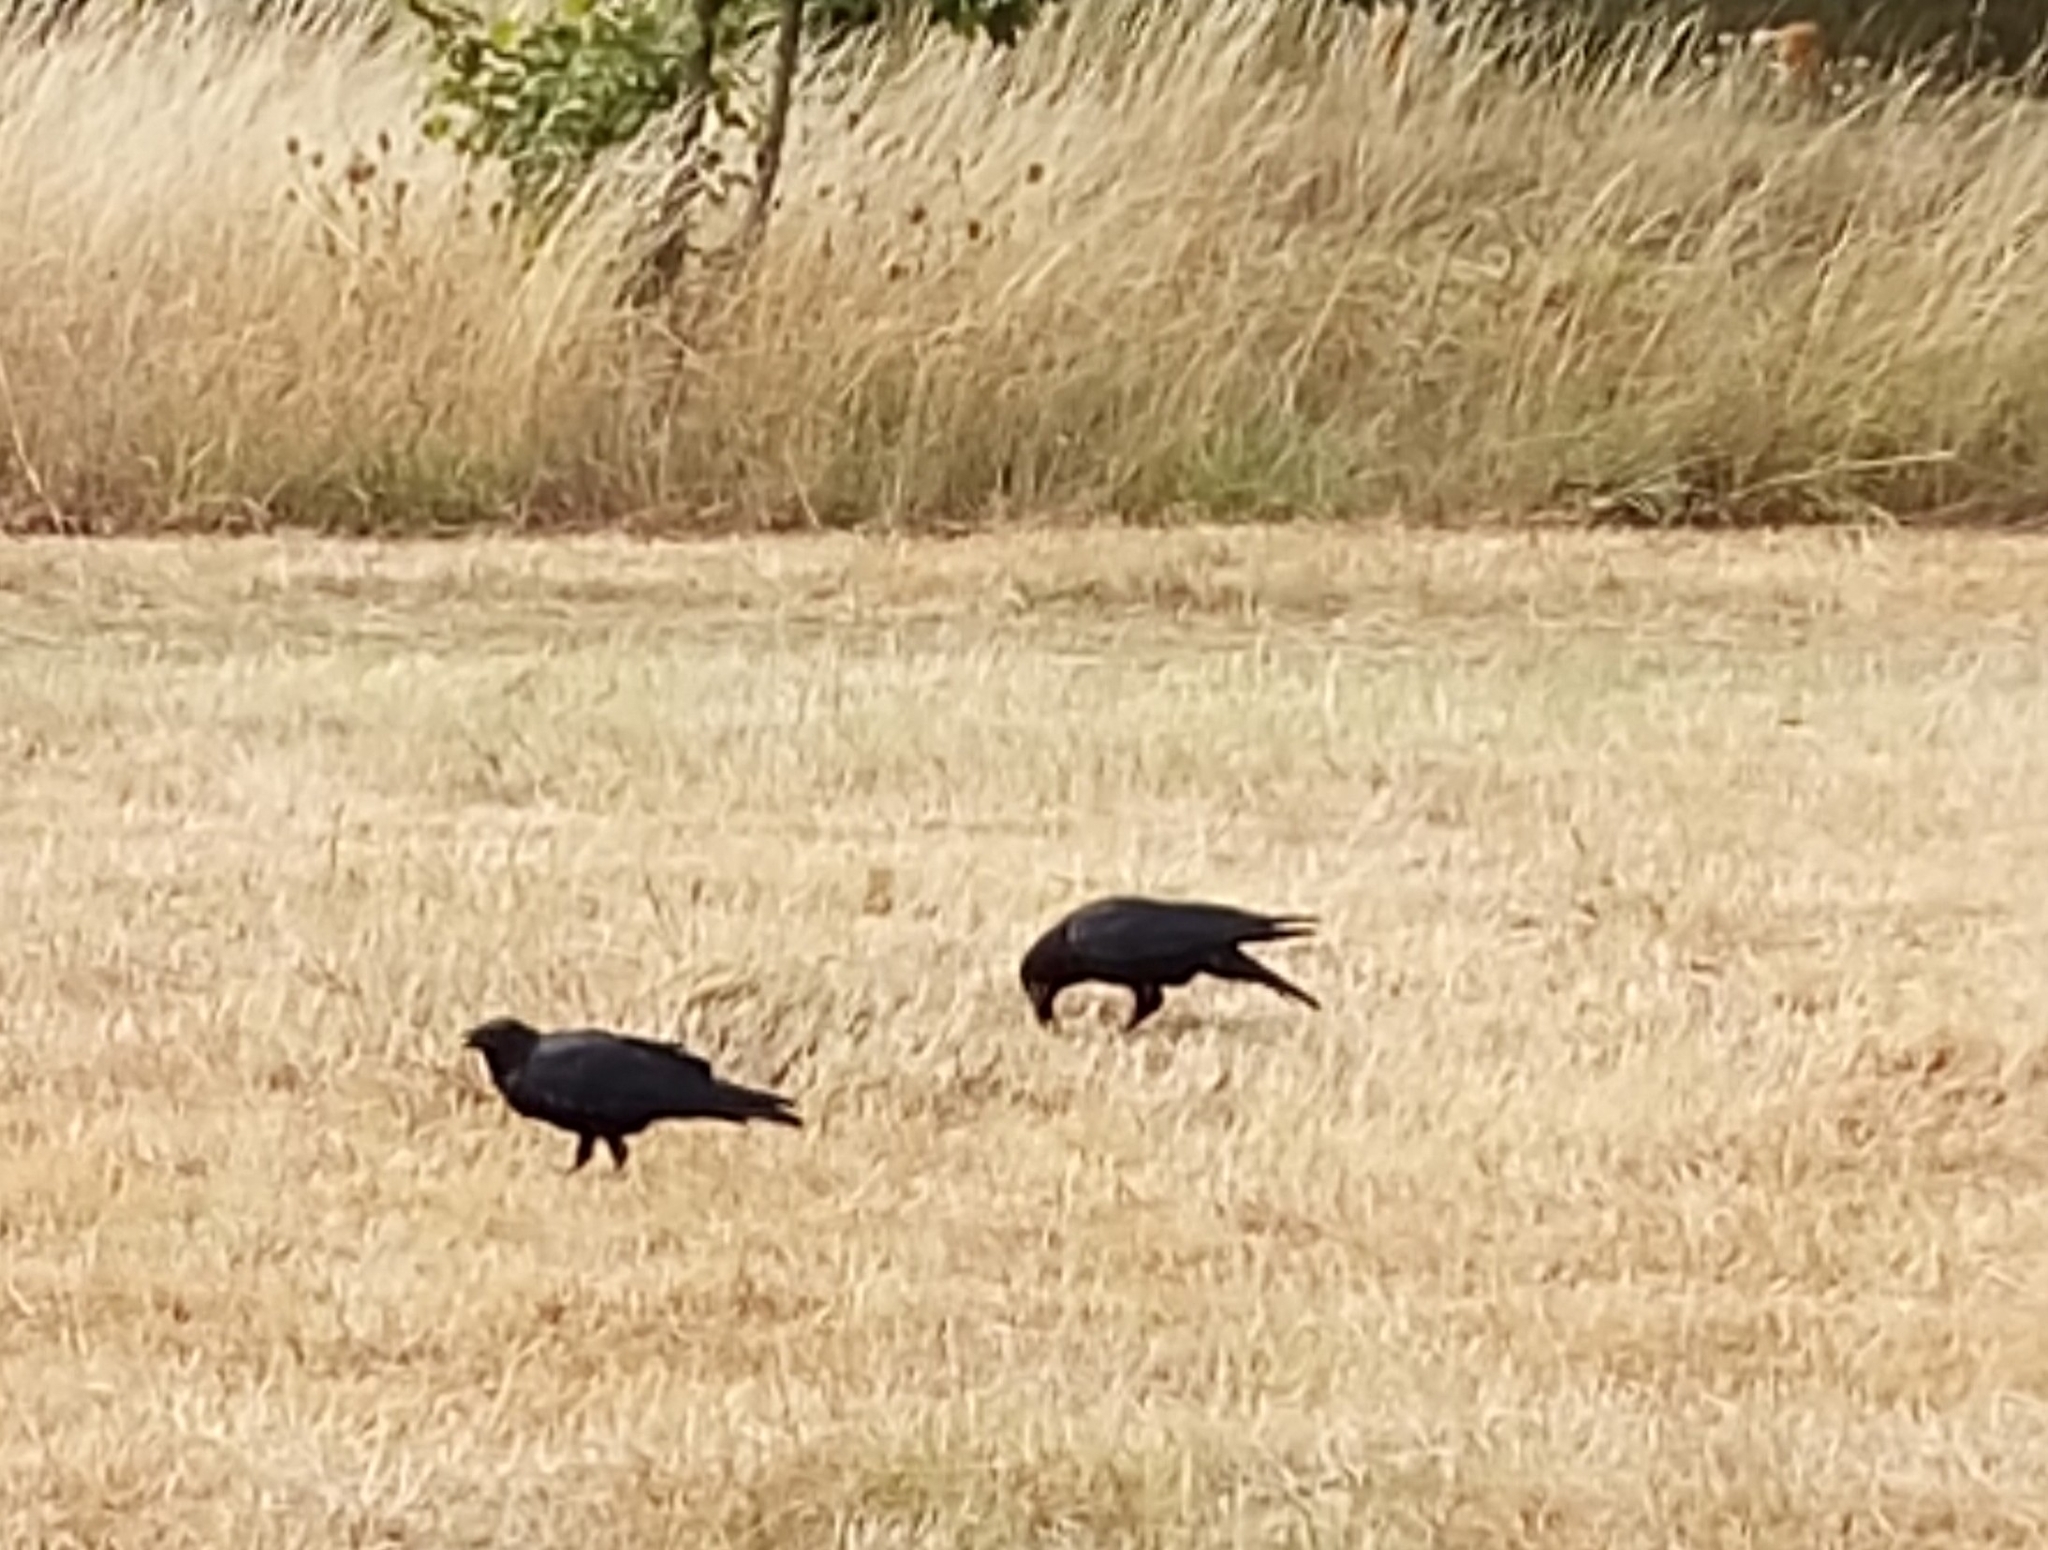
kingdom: Animalia
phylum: Chordata
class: Aves
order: Passeriformes
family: Corvidae
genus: Corvus
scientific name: Corvus corone
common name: Carrion crow
